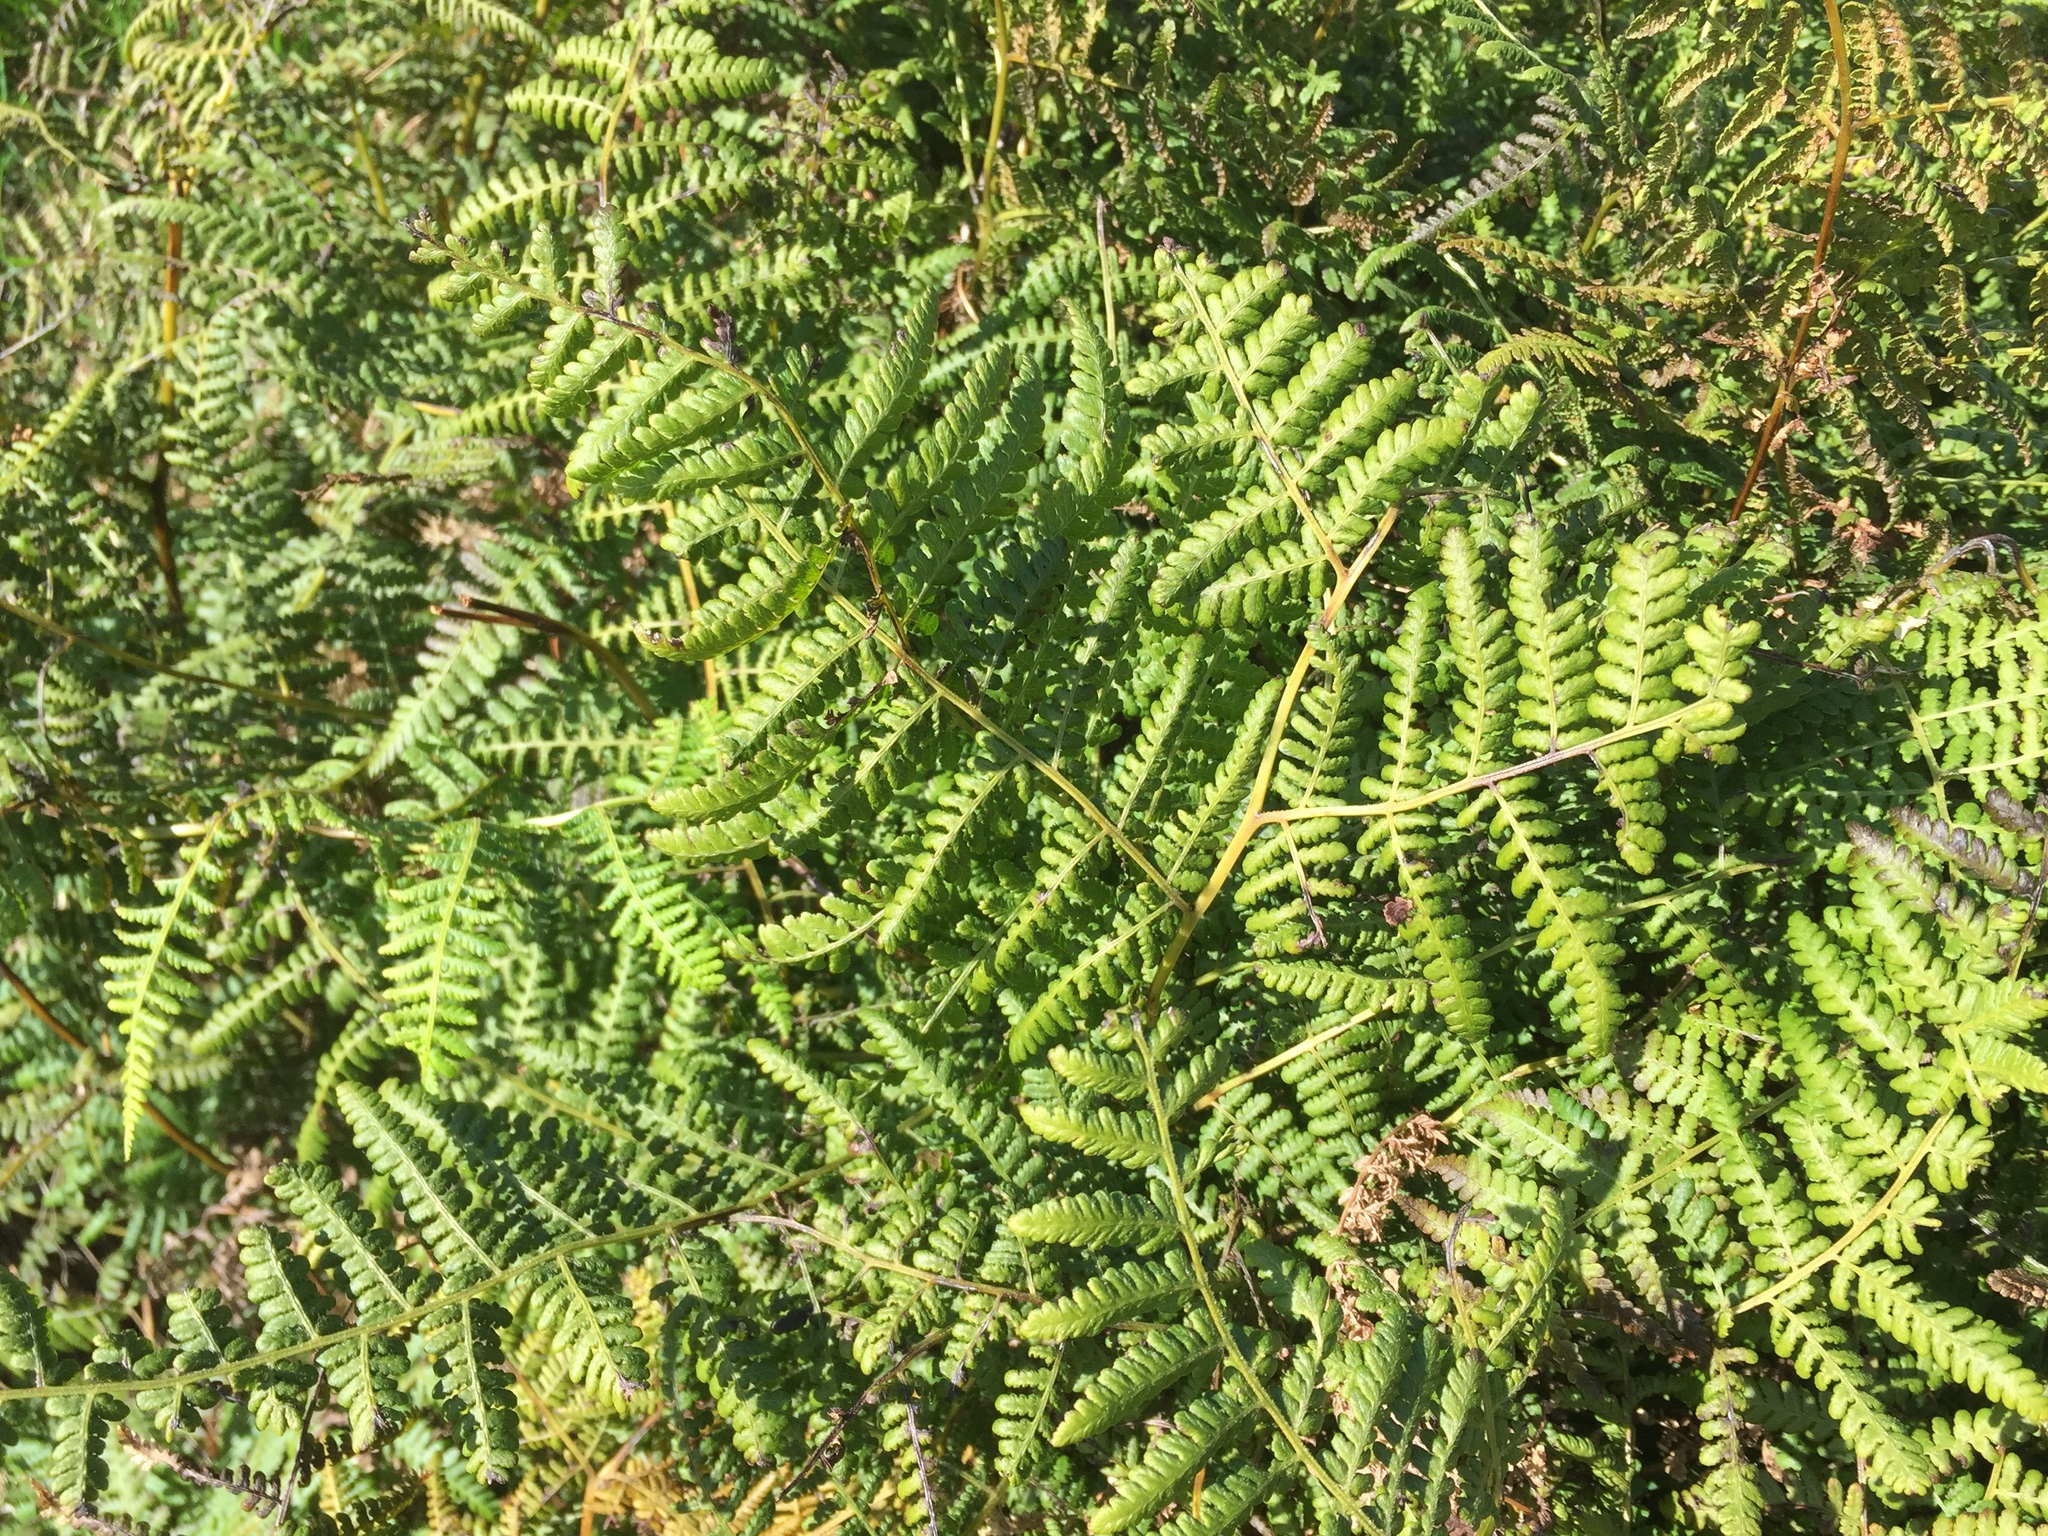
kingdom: Plantae
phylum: Tracheophyta
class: Polypodiopsida
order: Polypodiales
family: Dennstaedtiaceae
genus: Hypolepis
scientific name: Hypolepis ambigua
